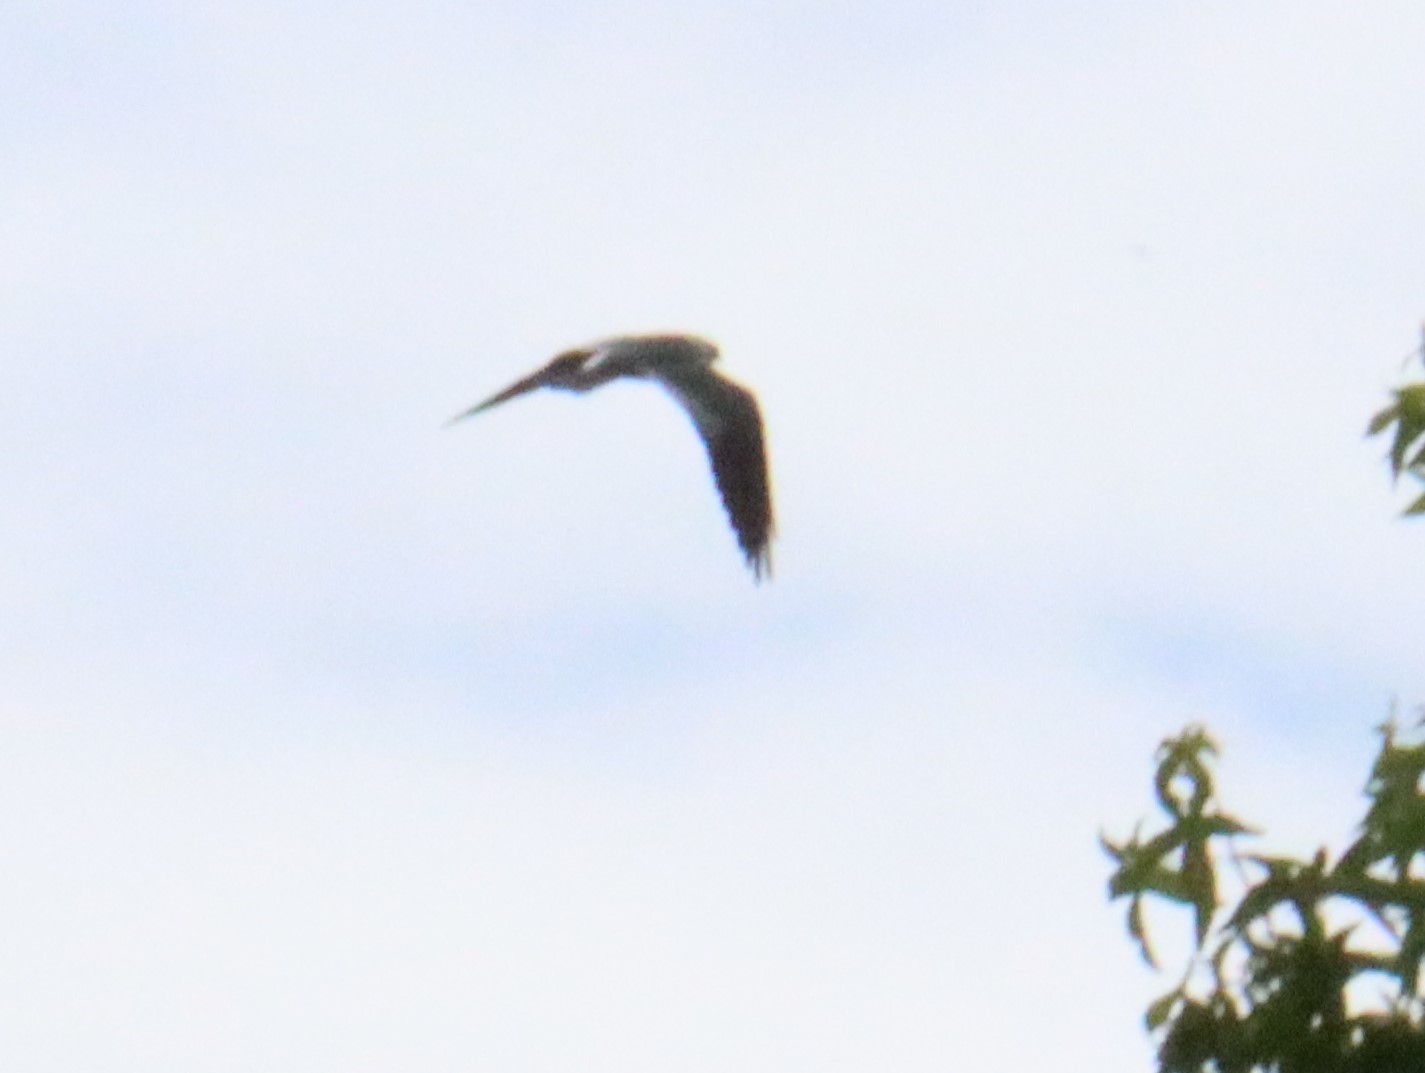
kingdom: Animalia
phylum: Chordata
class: Aves
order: Accipitriformes
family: Accipitridae
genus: Ictinia
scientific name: Ictinia mississippiensis
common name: Mississippi kite
